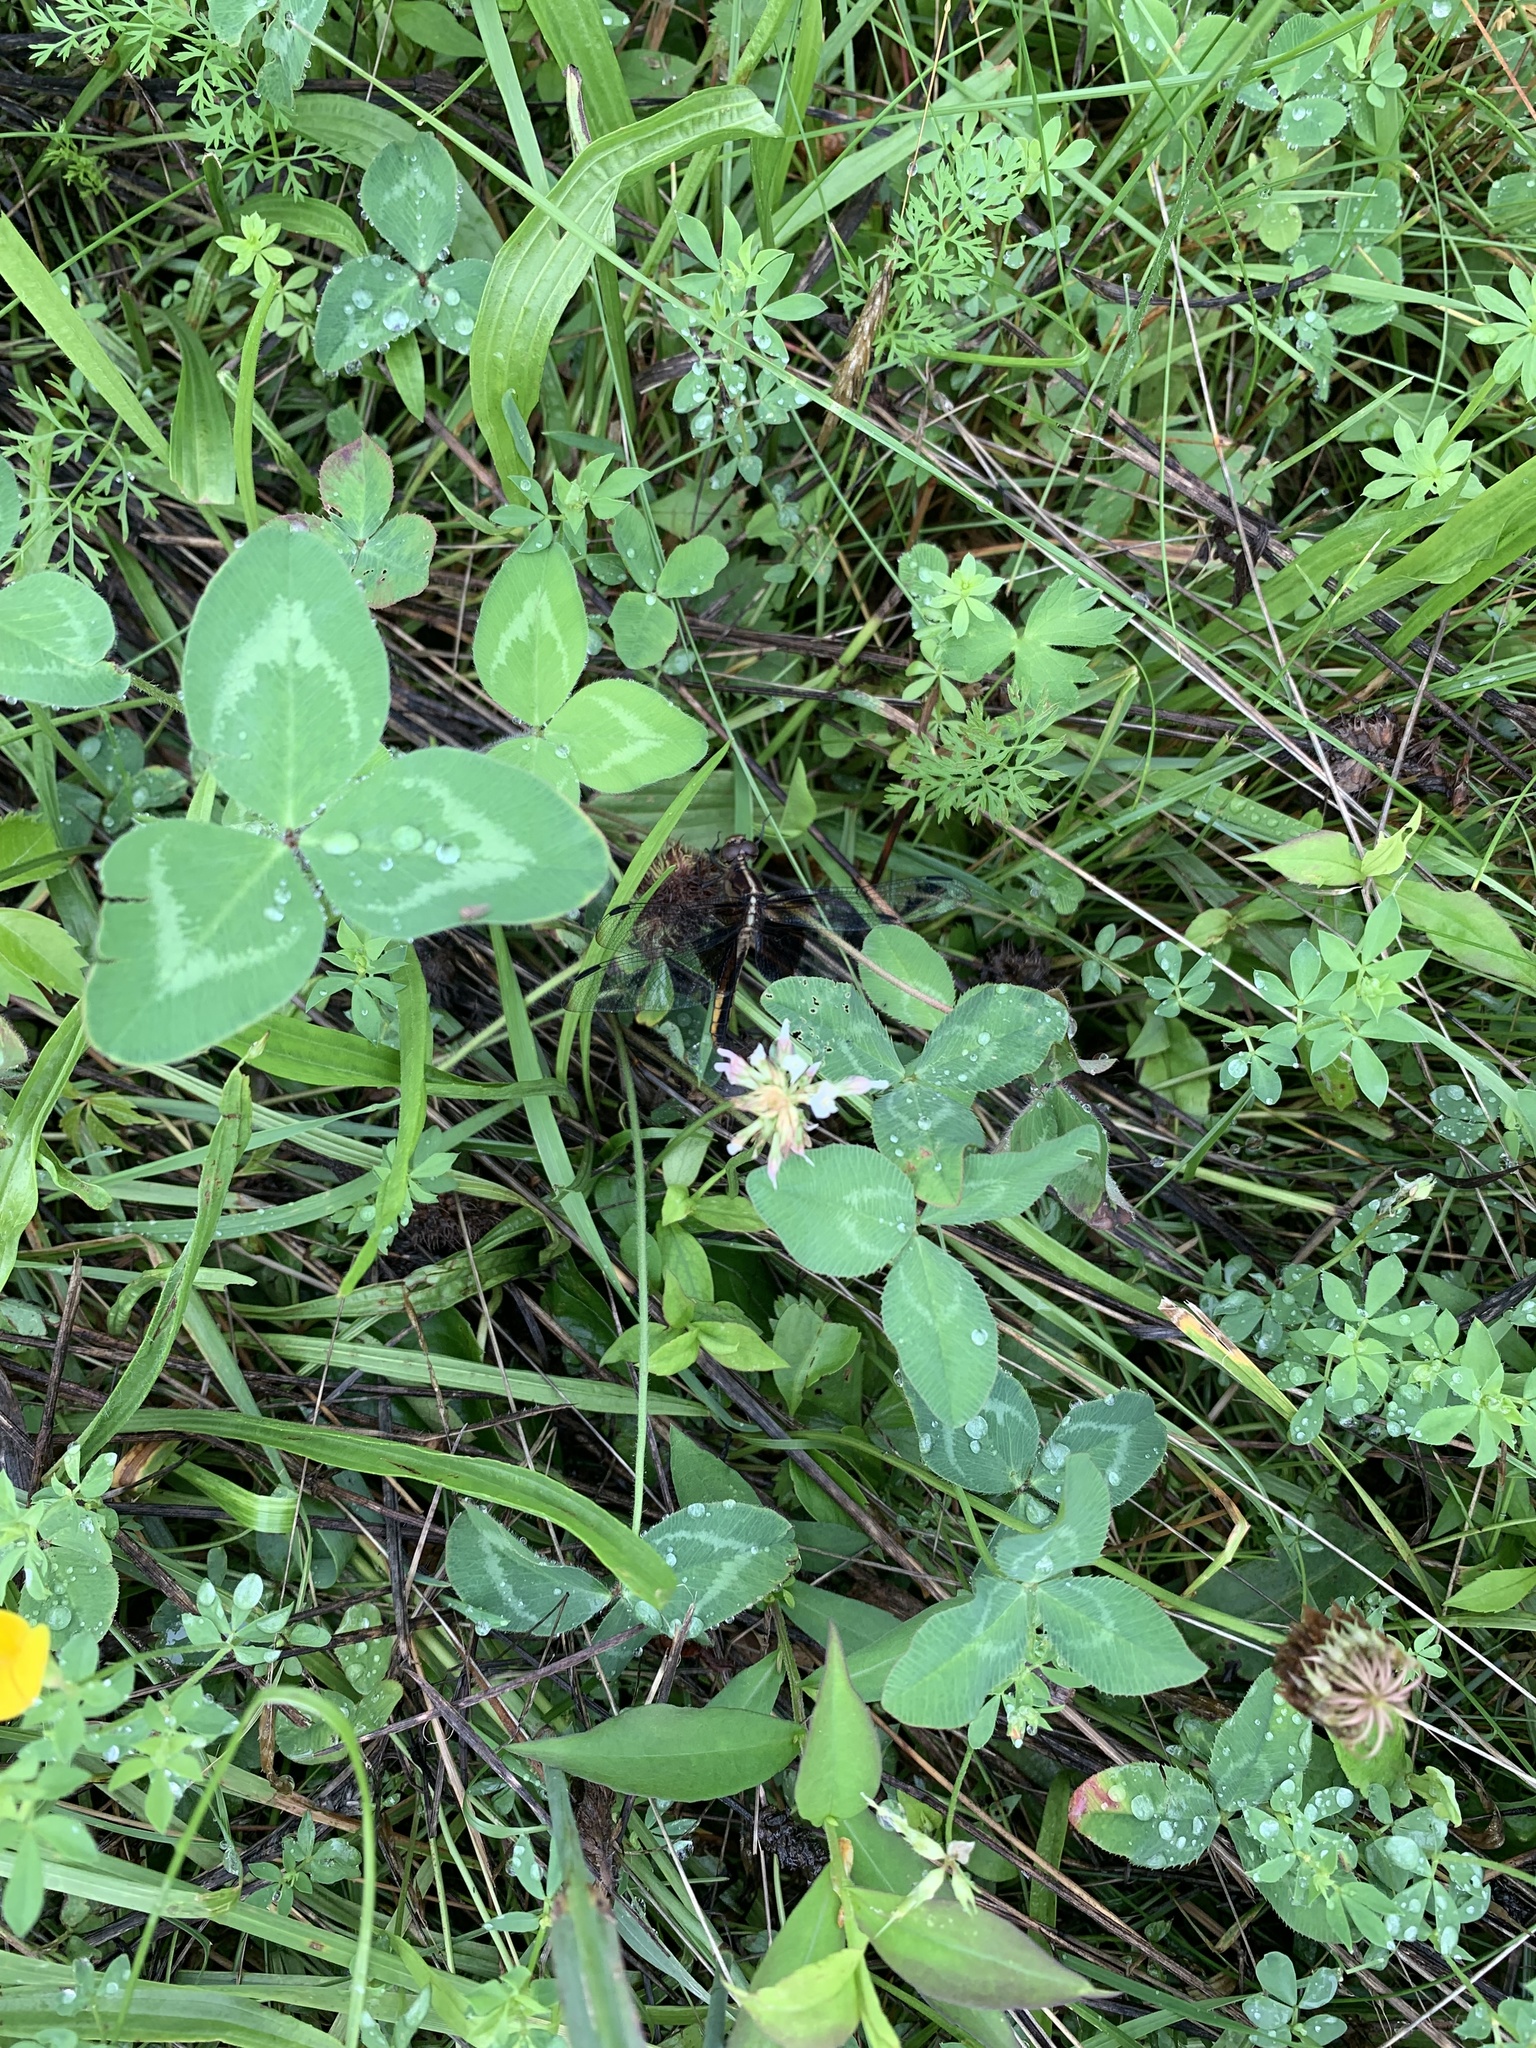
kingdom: Animalia
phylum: Arthropoda
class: Insecta
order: Odonata
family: Libellulidae
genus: Libellula
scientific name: Libellula luctuosa
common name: Widow skimmer
